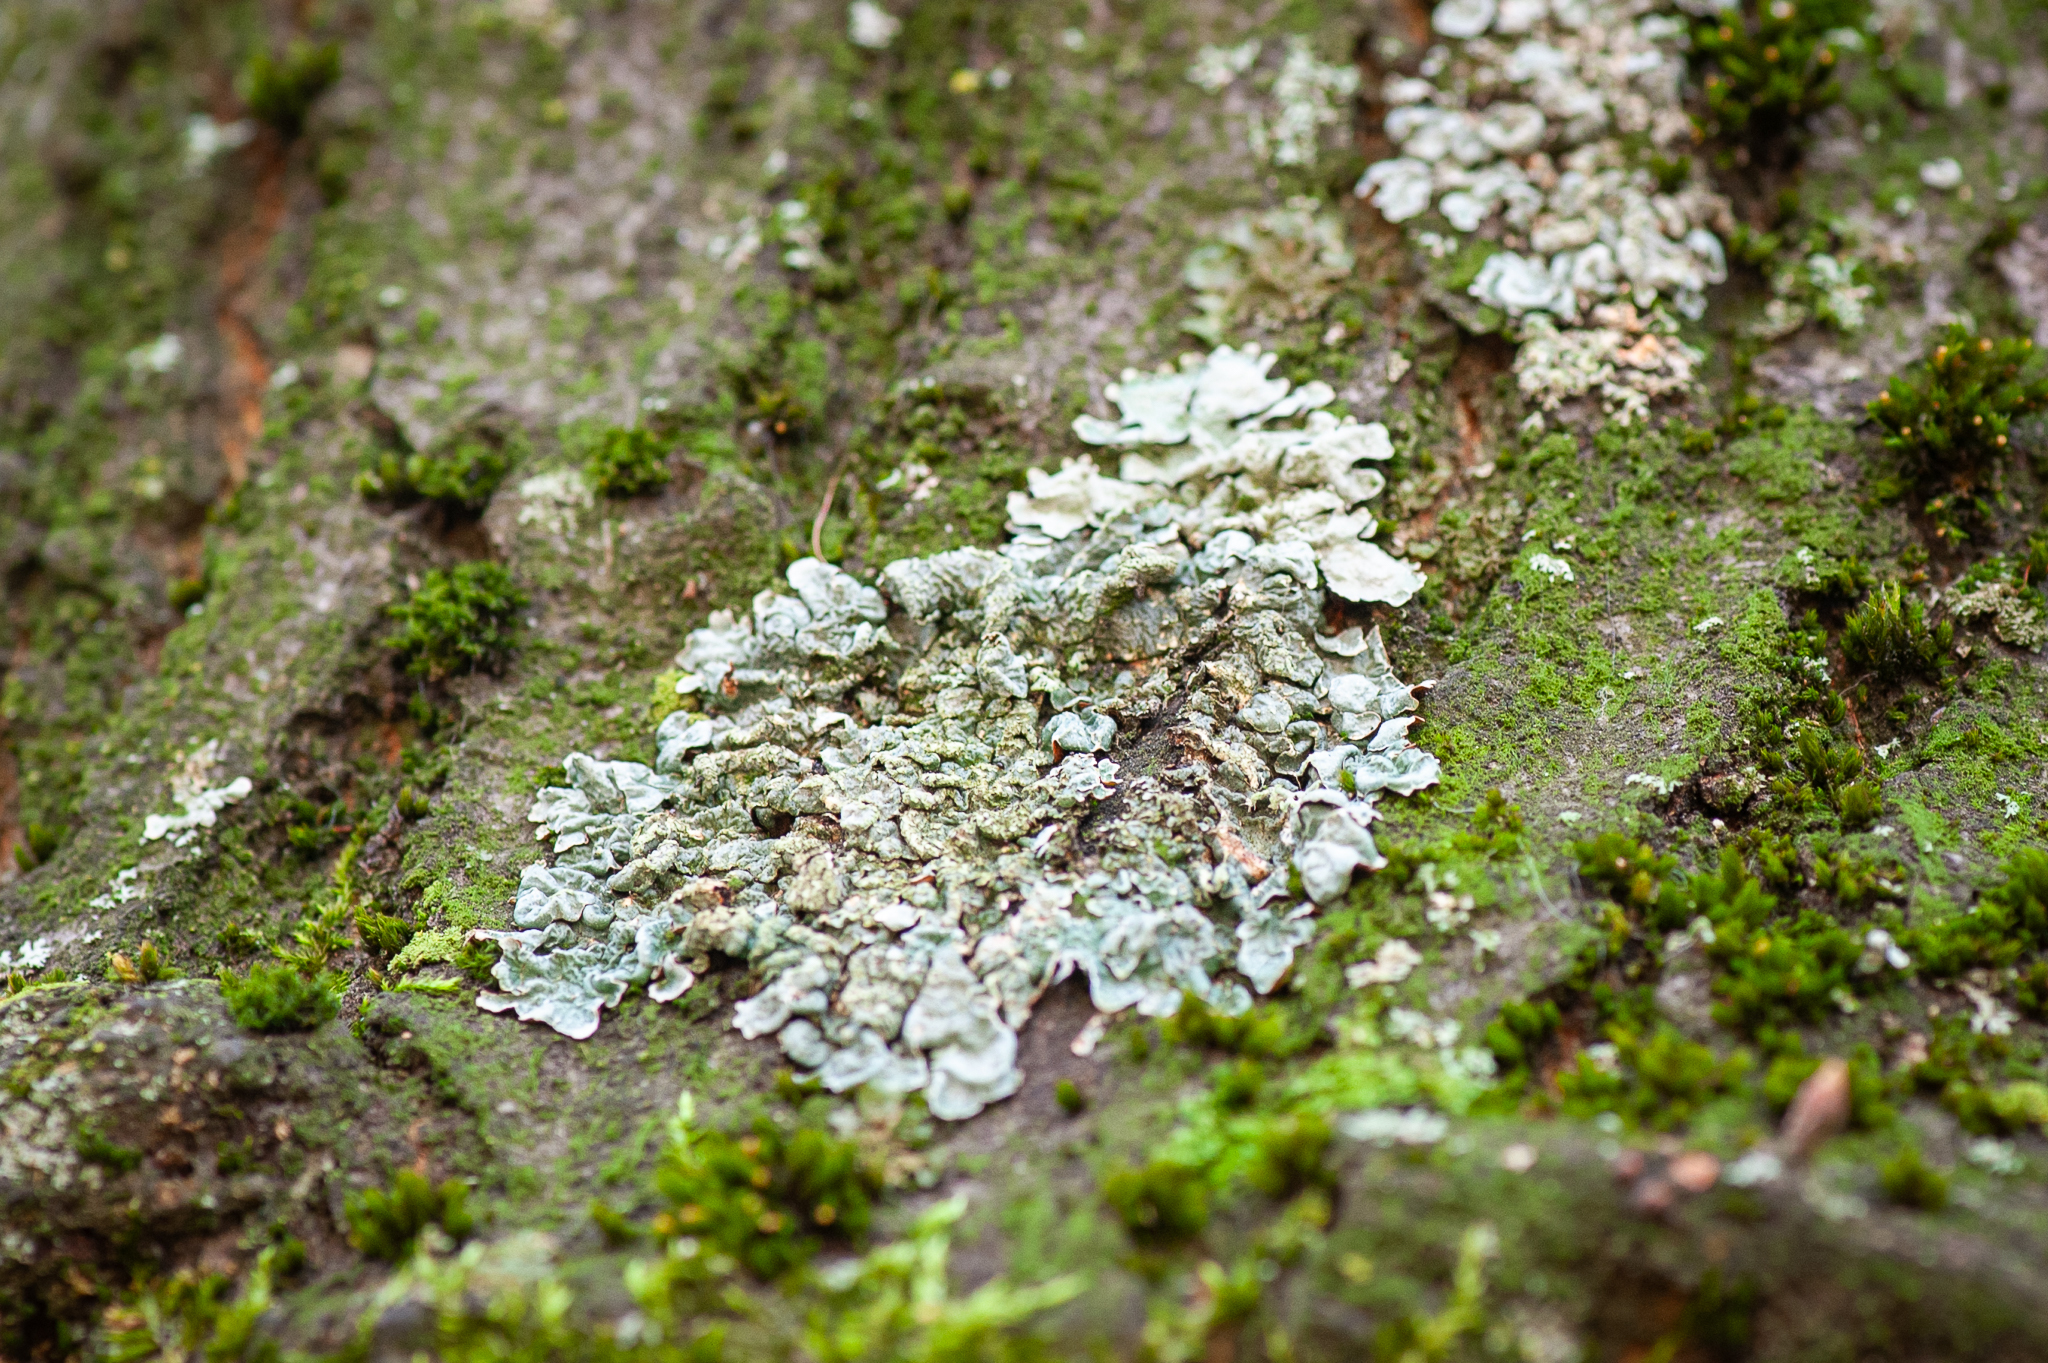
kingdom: Fungi
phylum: Ascomycota
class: Lecanoromycetes
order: Lecanorales
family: Parmeliaceae
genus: Parmelia
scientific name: Parmelia sulcata
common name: Netted shield lichen
